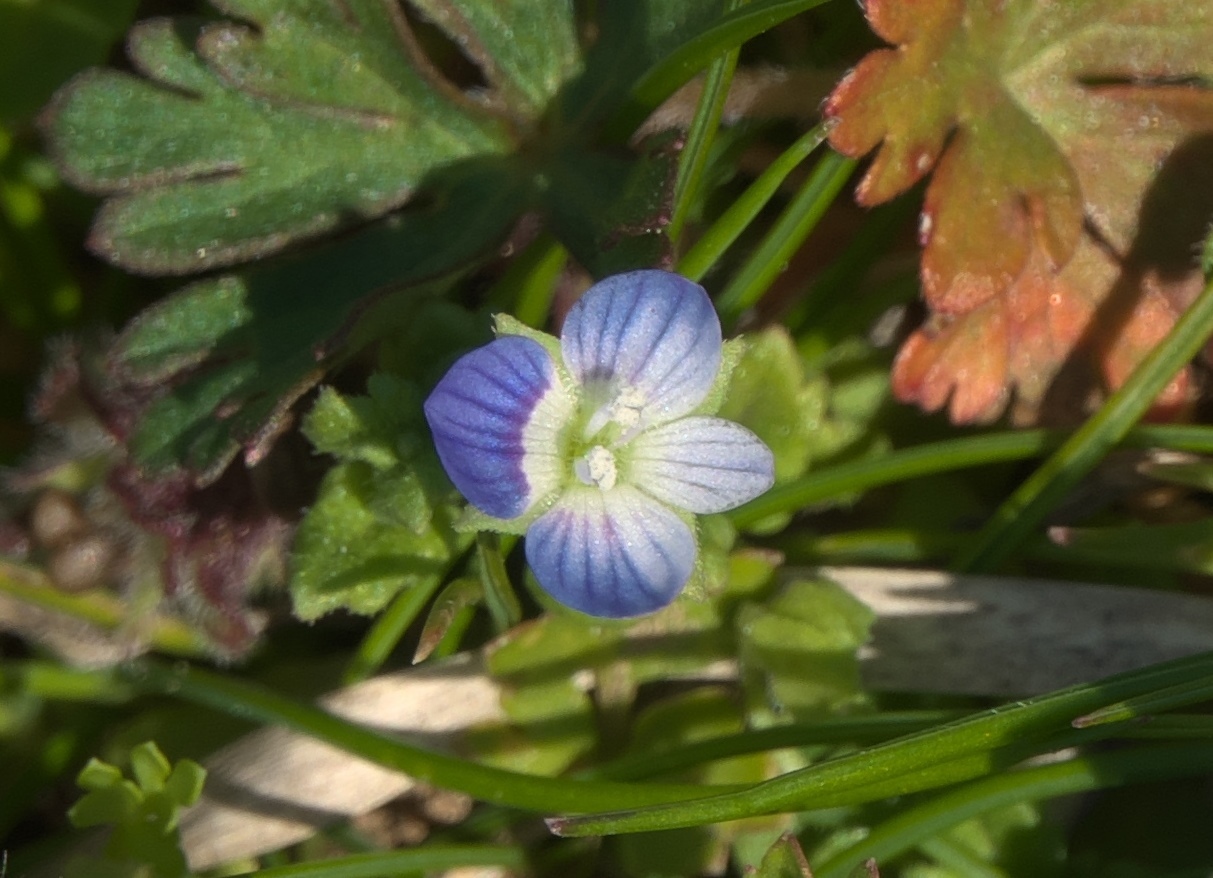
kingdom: Plantae
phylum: Tracheophyta
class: Magnoliopsida
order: Lamiales
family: Plantaginaceae
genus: Veronica
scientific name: Veronica persica
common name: Common field-speedwell
